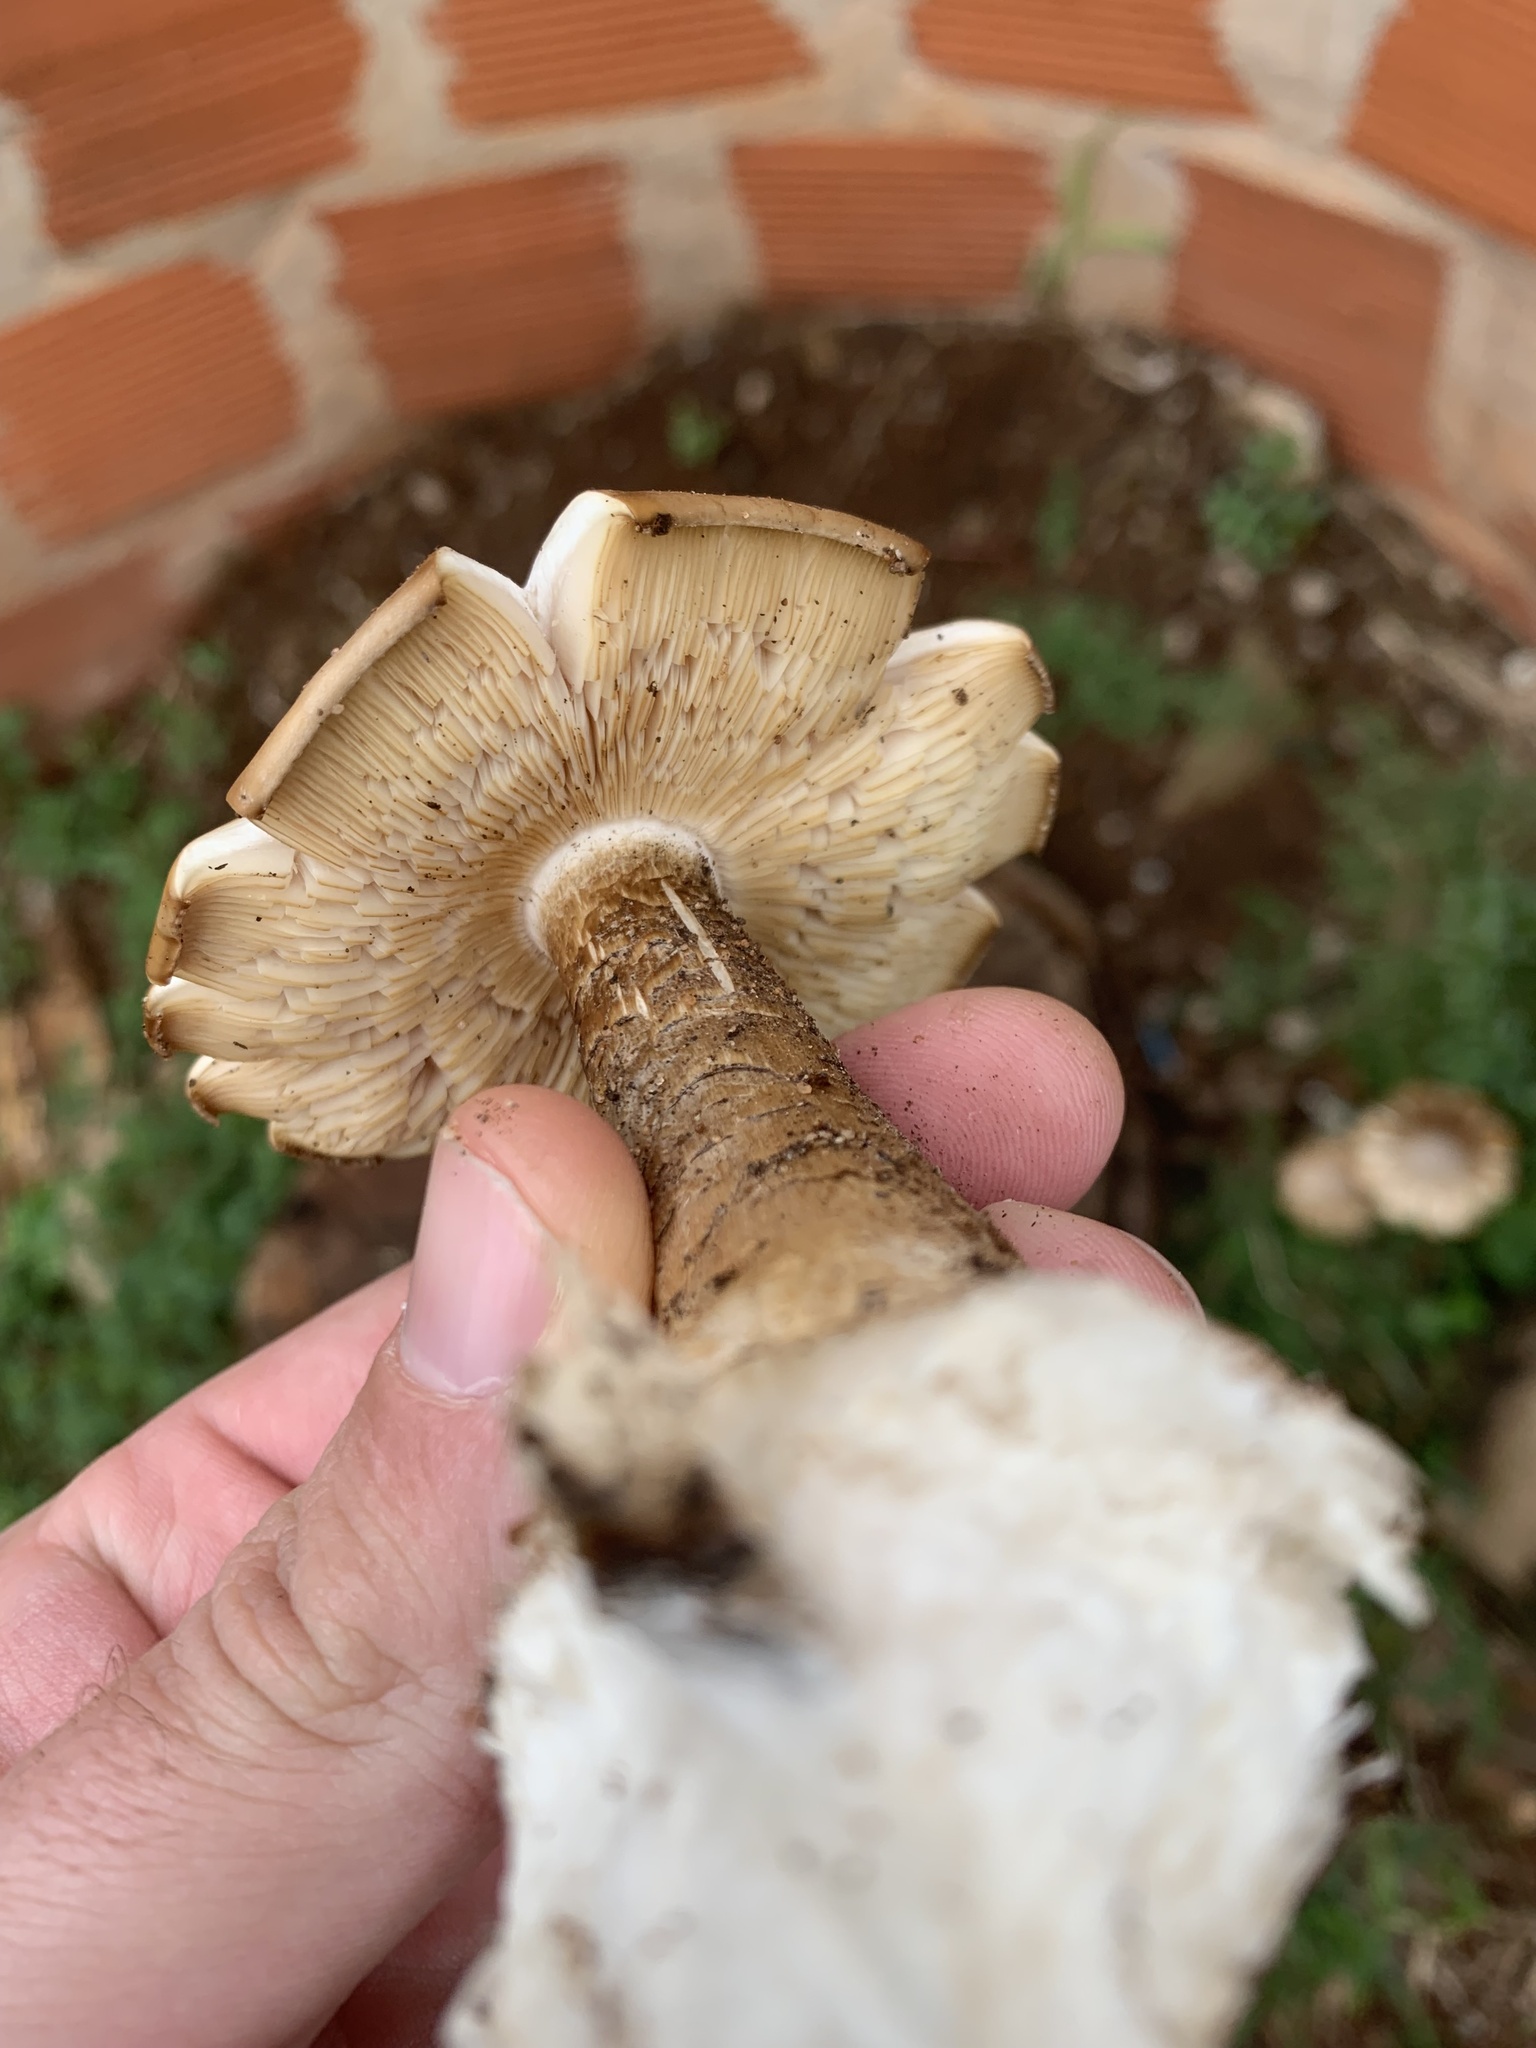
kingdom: Fungi
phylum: Basidiomycota
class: Agaricomycetes
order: Agaricales
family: Callistosporiaceae
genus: Macrocybe
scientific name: Macrocybe titans
